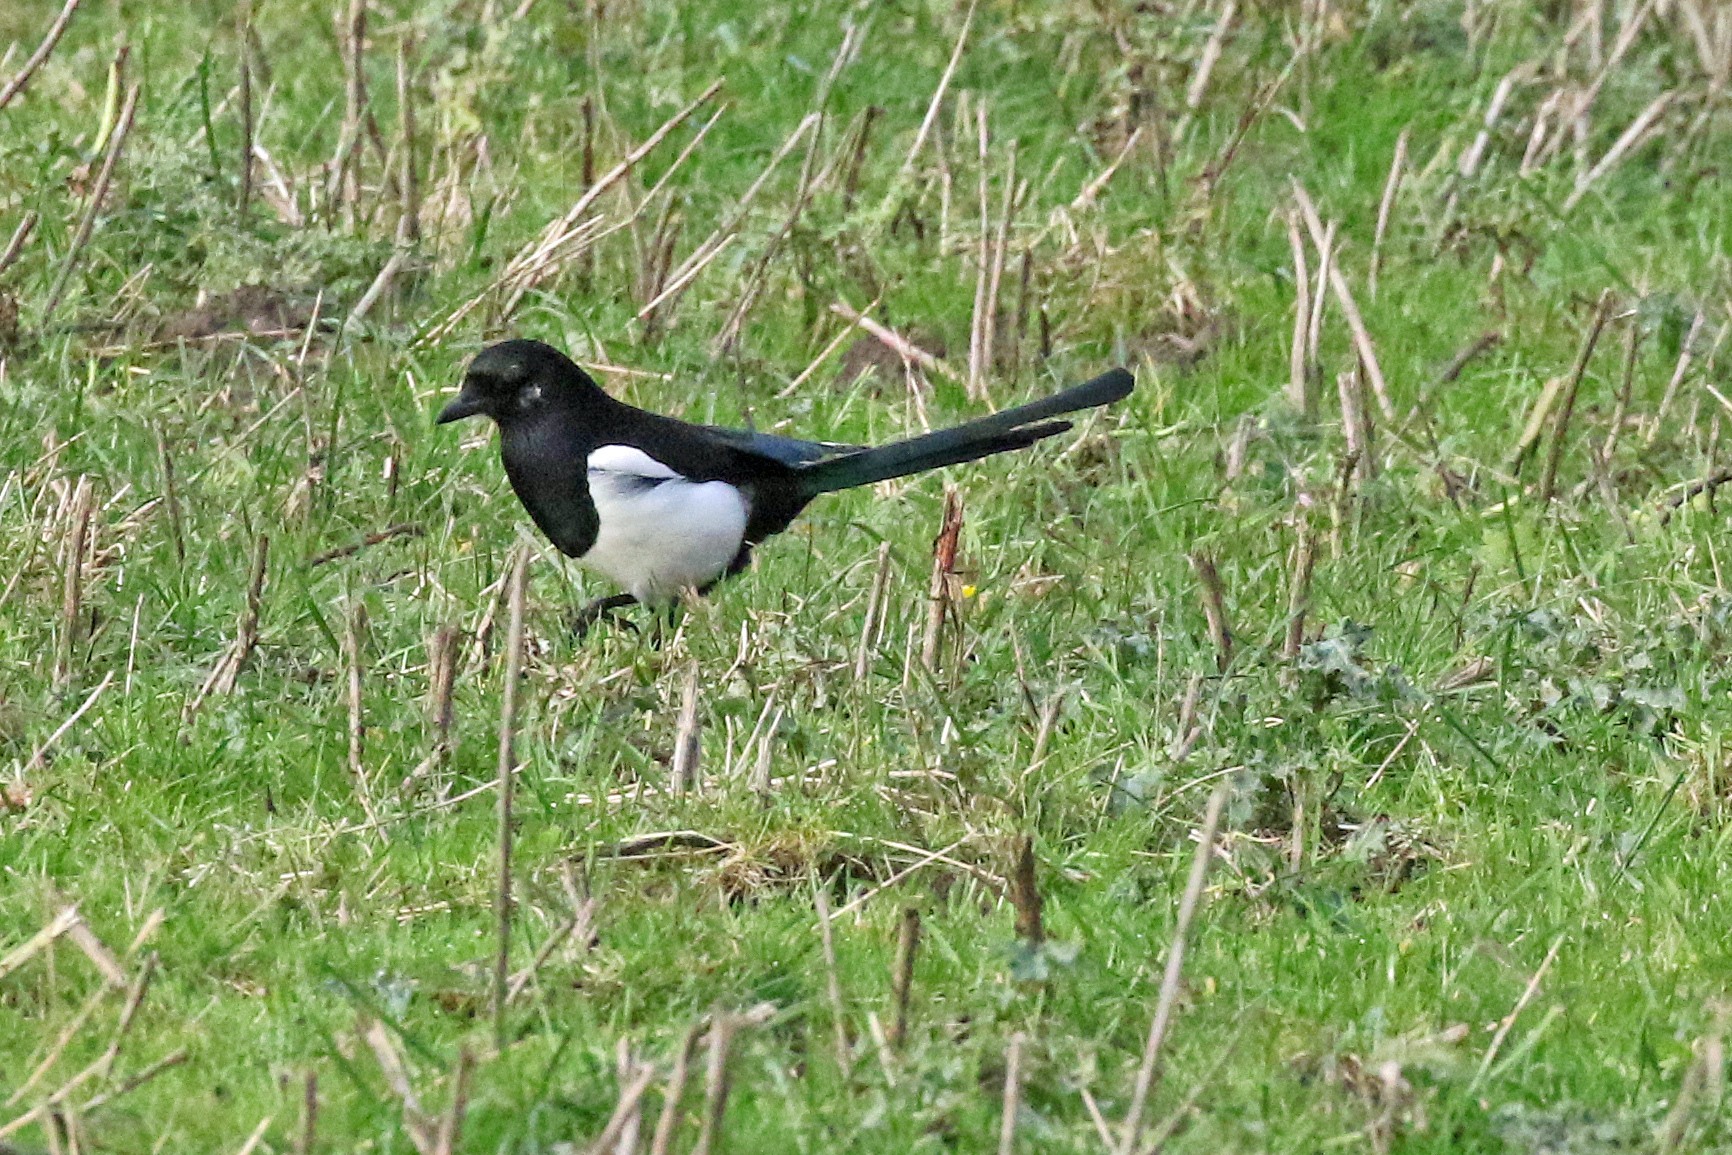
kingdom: Animalia
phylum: Chordata
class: Aves
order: Passeriformes
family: Corvidae
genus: Pica
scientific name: Pica pica
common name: Eurasian magpie
